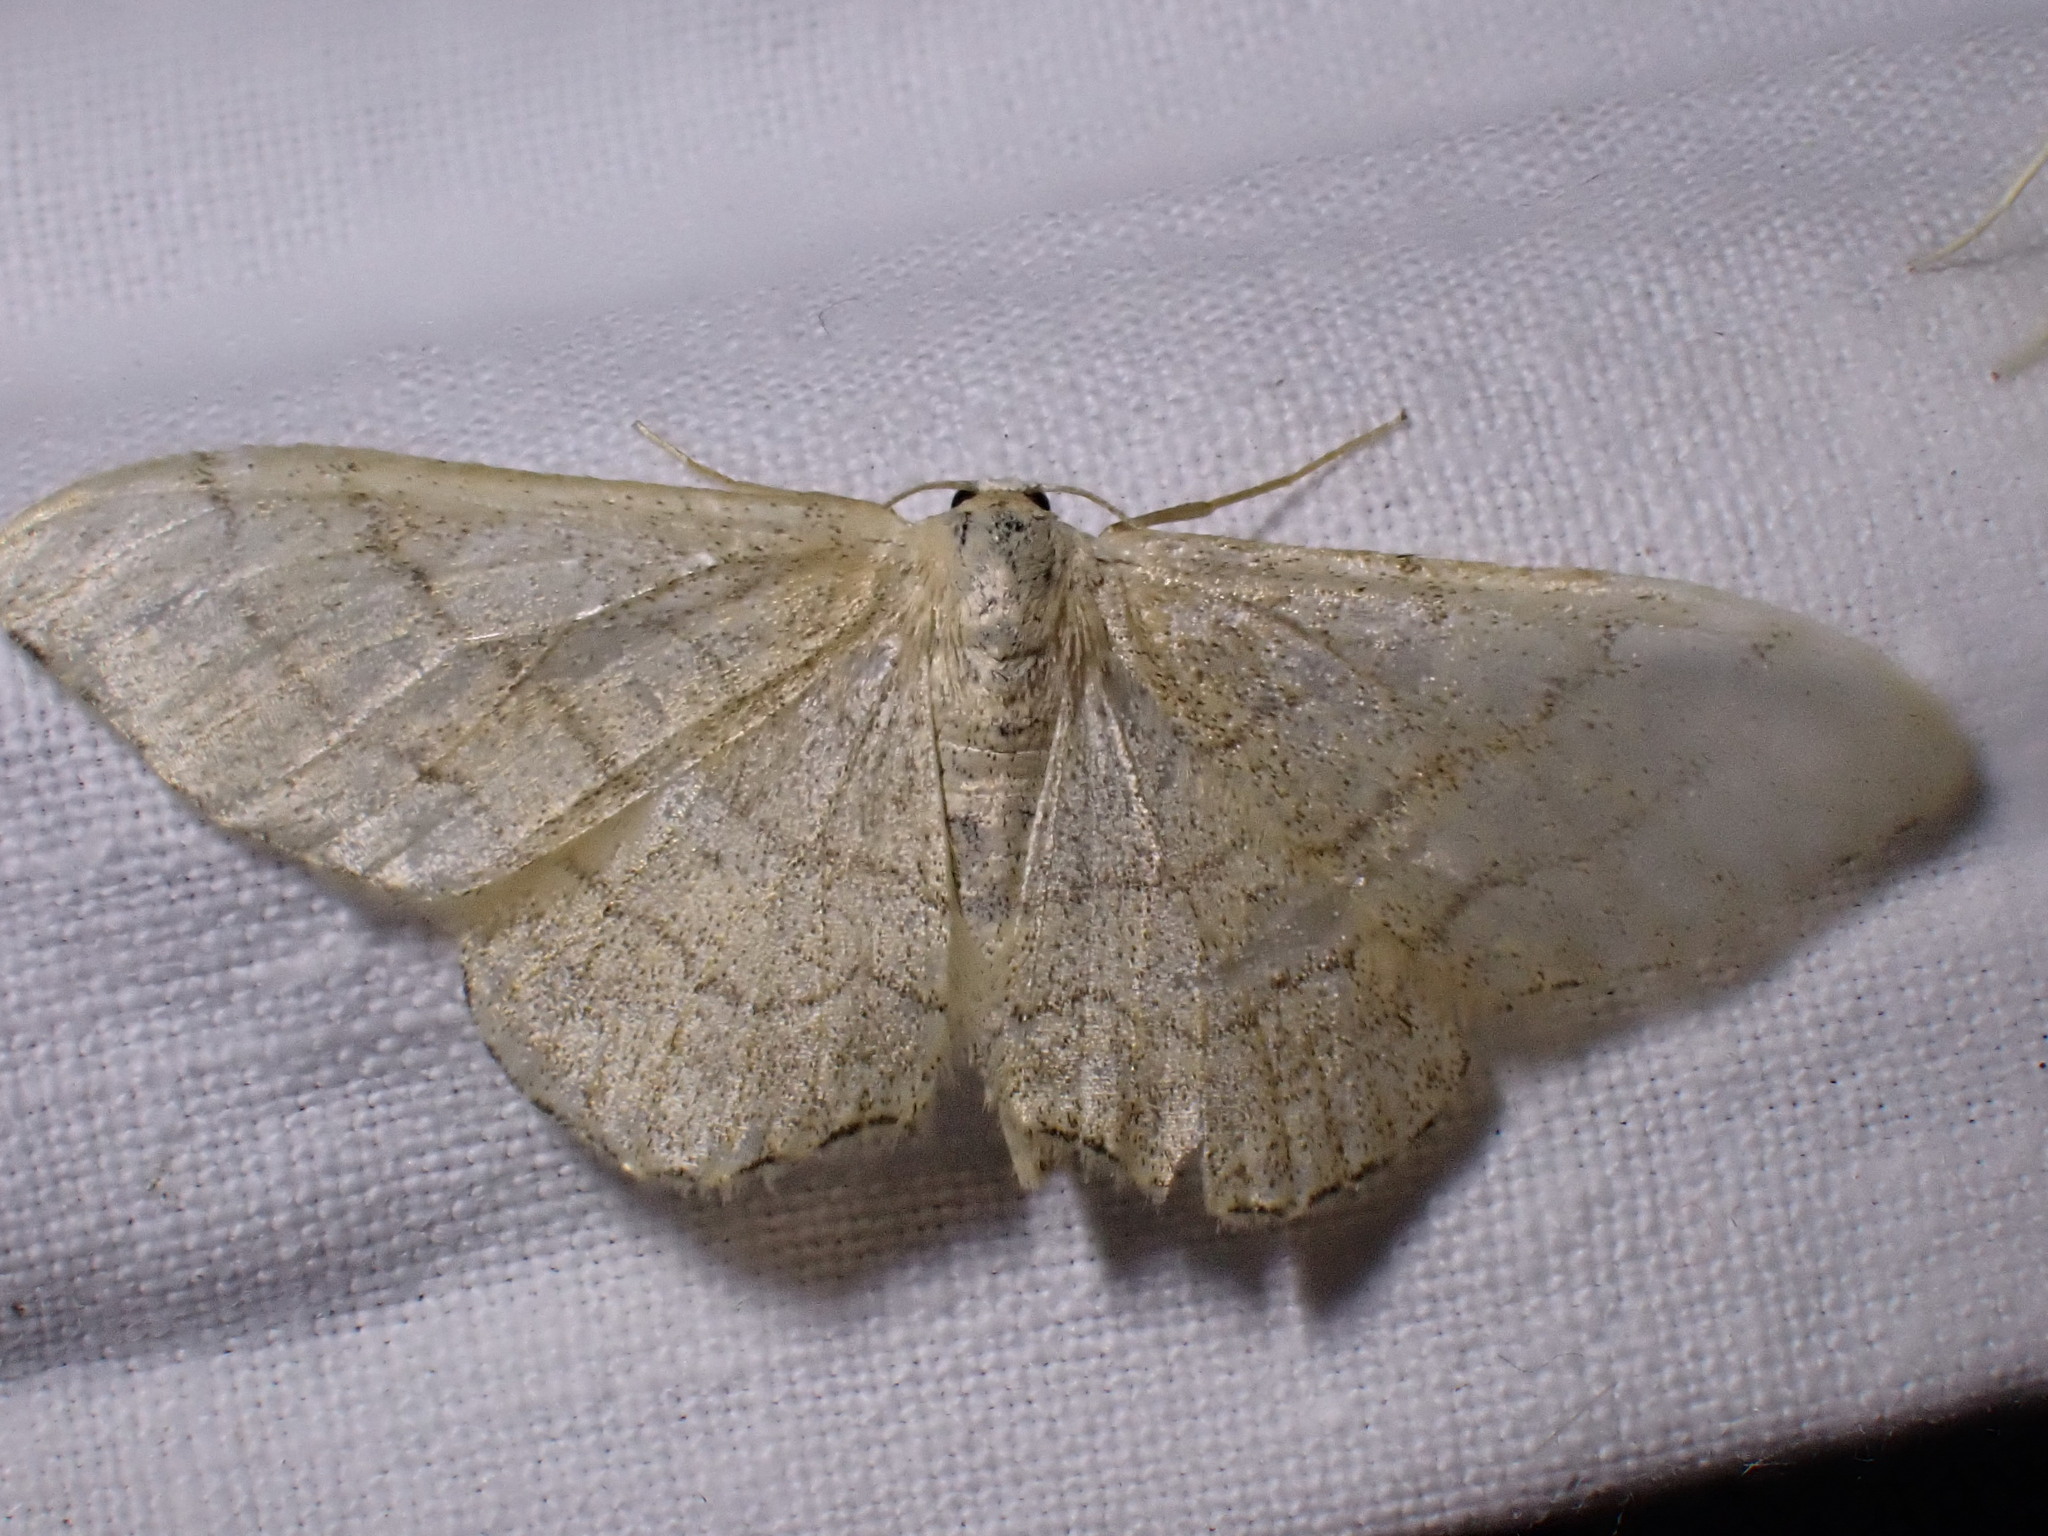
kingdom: Animalia
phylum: Arthropoda
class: Insecta
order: Lepidoptera
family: Geometridae
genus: Idaea
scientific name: Idaea aversata
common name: Riband wave
